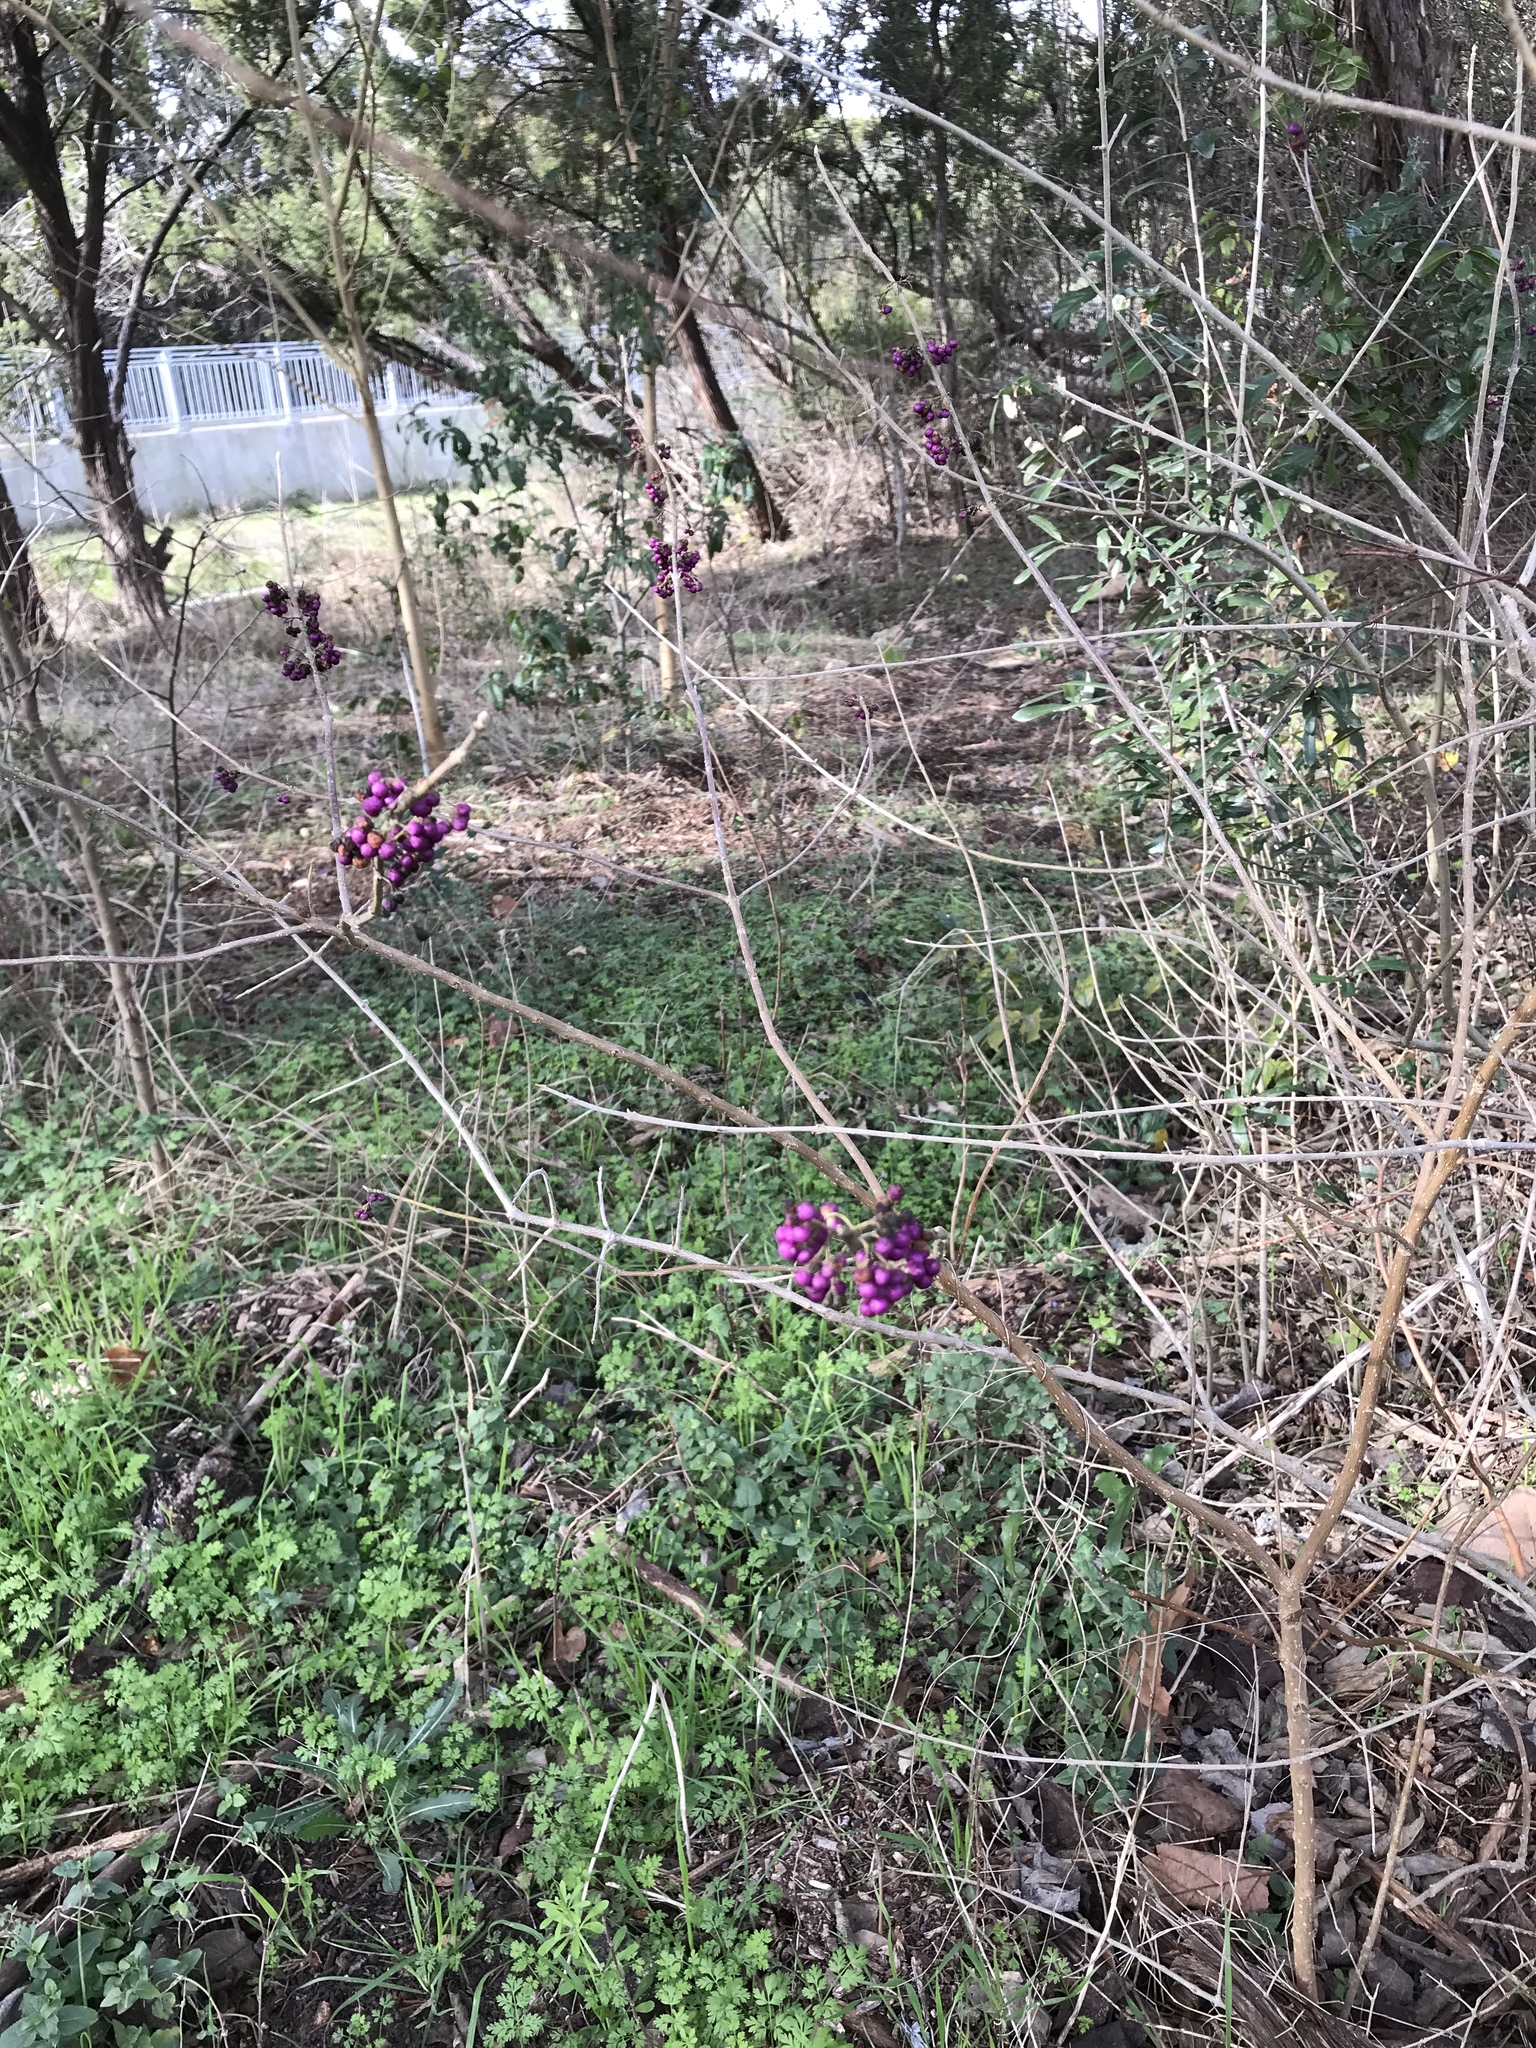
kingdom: Plantae
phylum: Tracheophyta
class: Magnoliopsida
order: Lamiales
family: Lamiaceae
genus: Callicarpa
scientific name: Callicarpa americana
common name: American beautyberry
